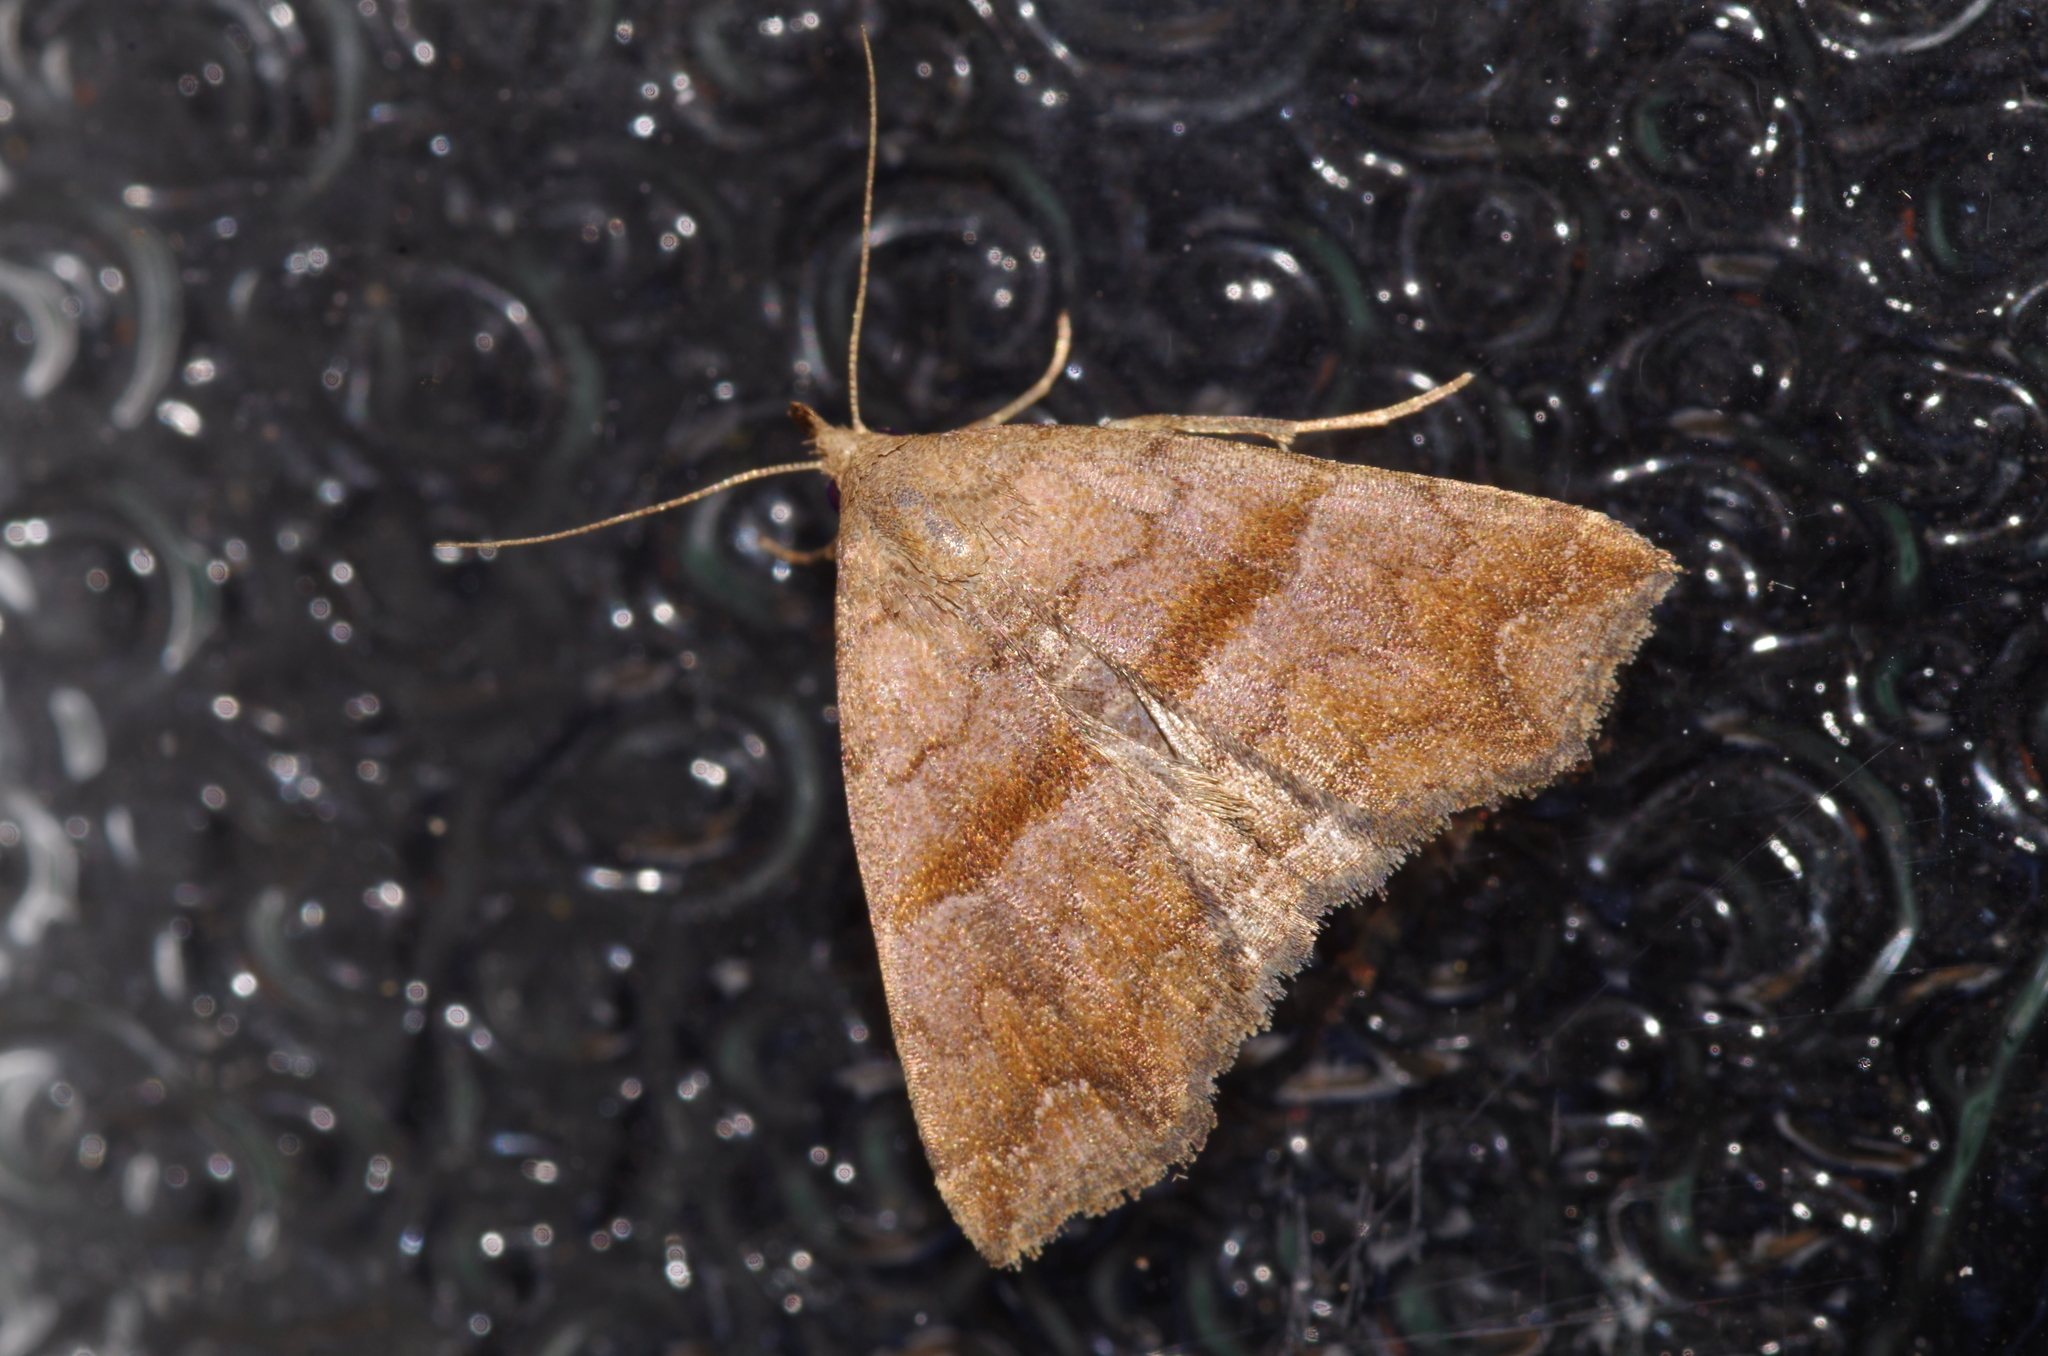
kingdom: Animalia
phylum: Arthropoda
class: Insecta
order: Lepidoptera
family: Erebidae
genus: Polypogon
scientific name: Polypogon Hipoepa fractalis
